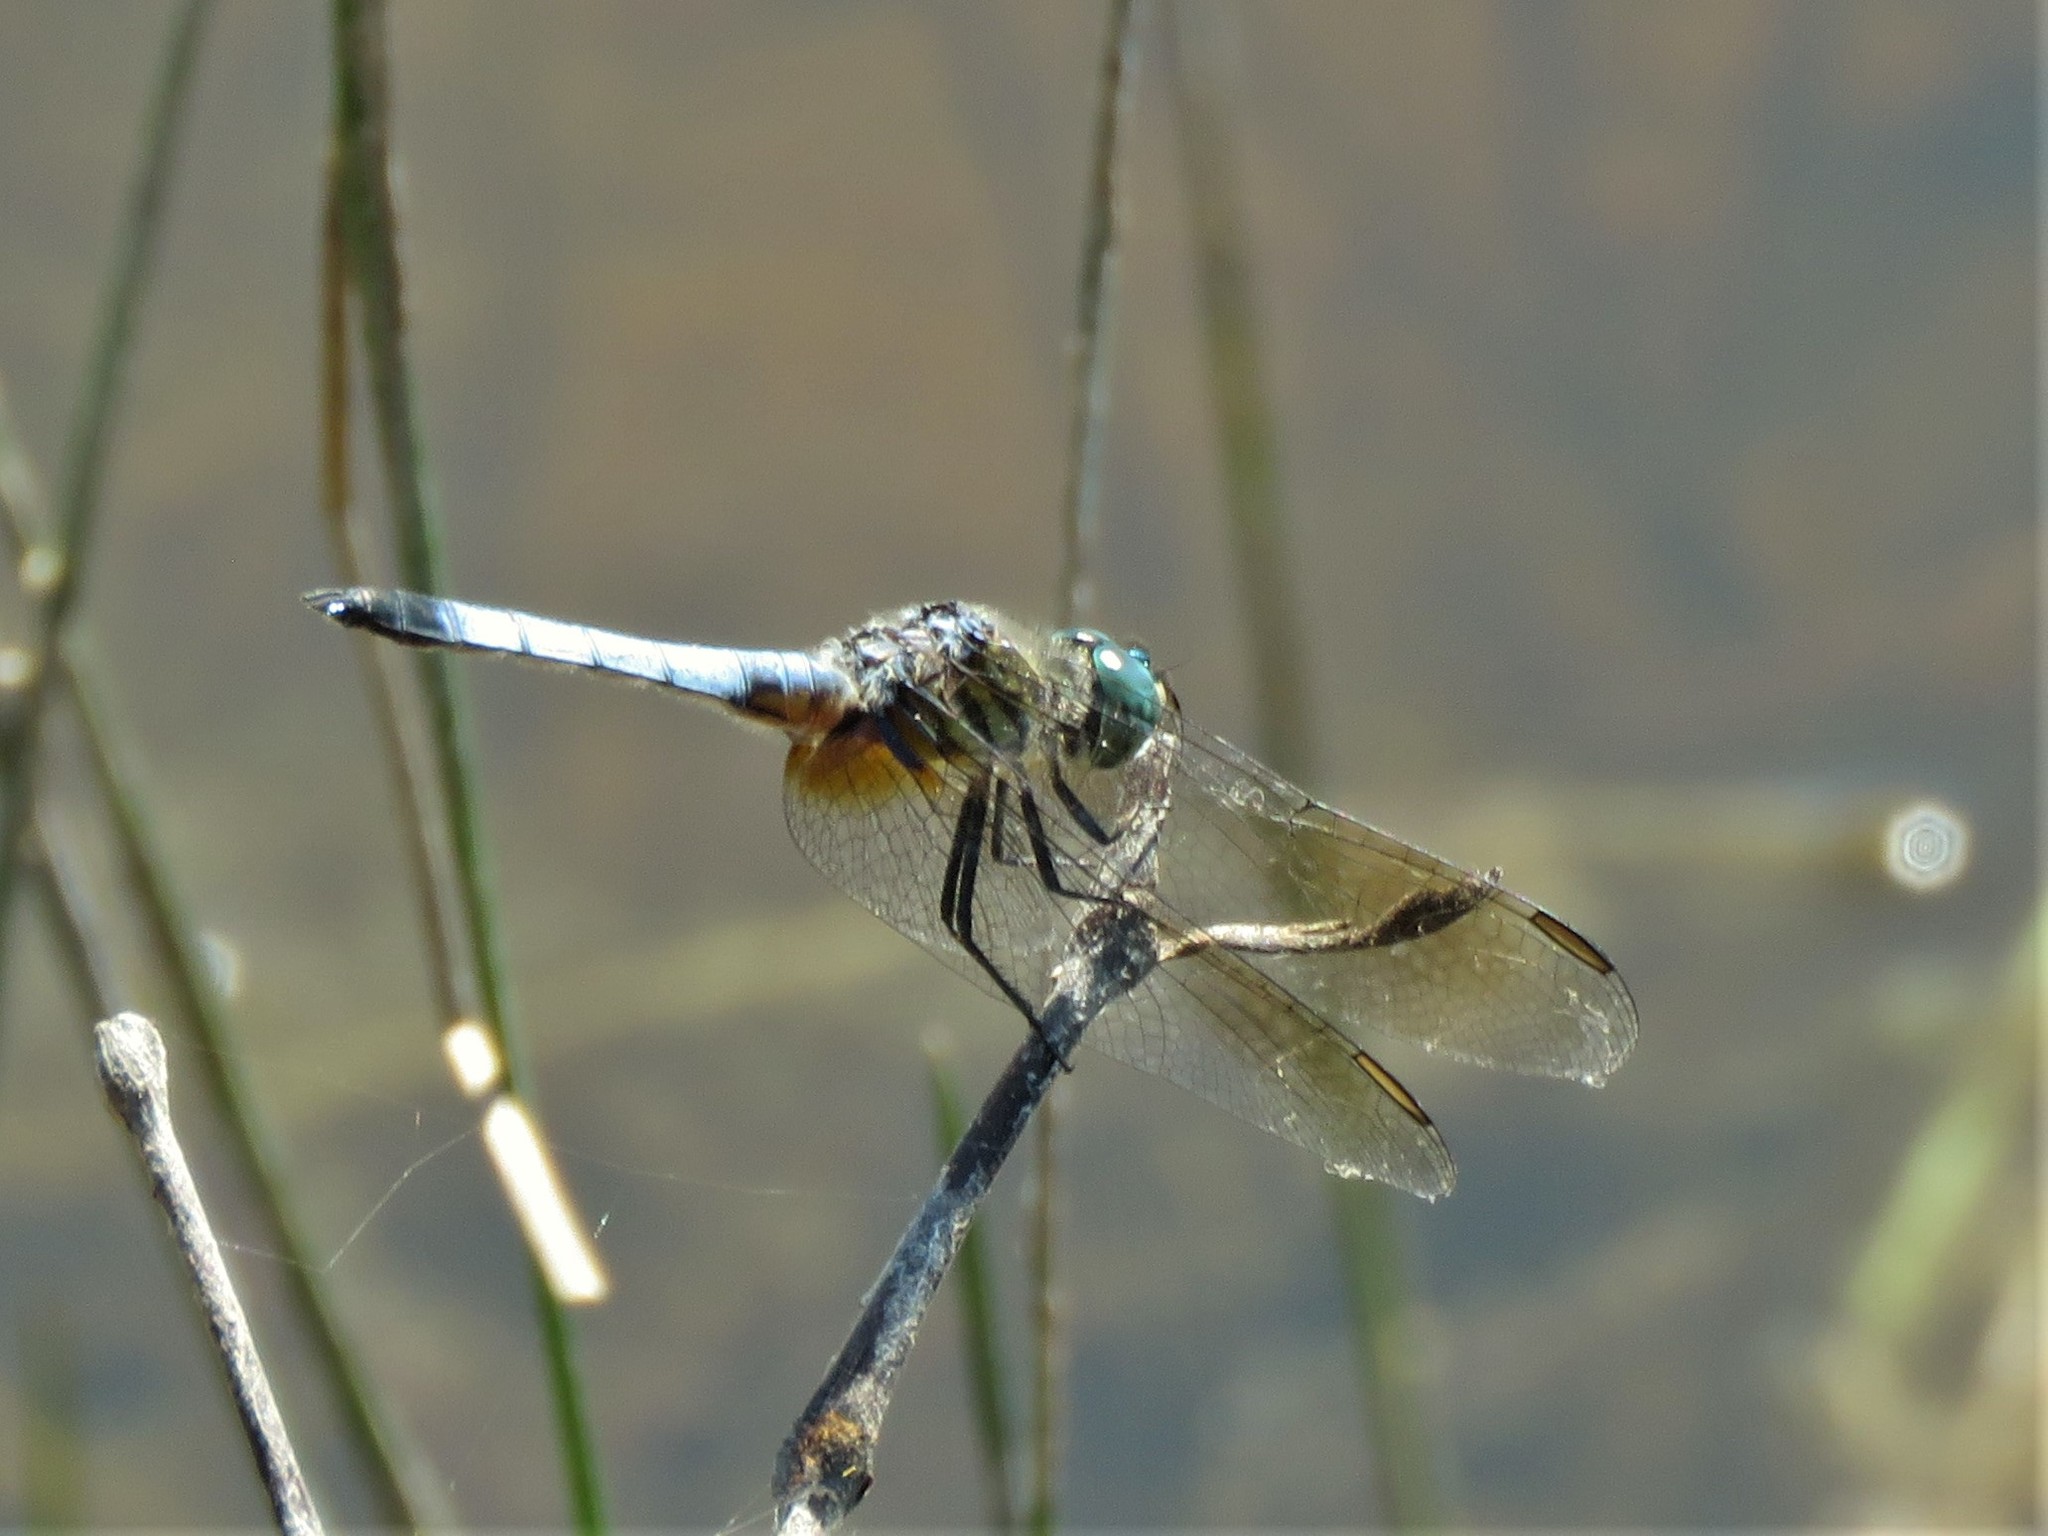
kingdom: Animalia
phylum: Arthropoda
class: Insecta
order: Odonata
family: Libellulidae
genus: Pachydiplax
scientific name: Pachydiplax longipennis
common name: Blue dasher
